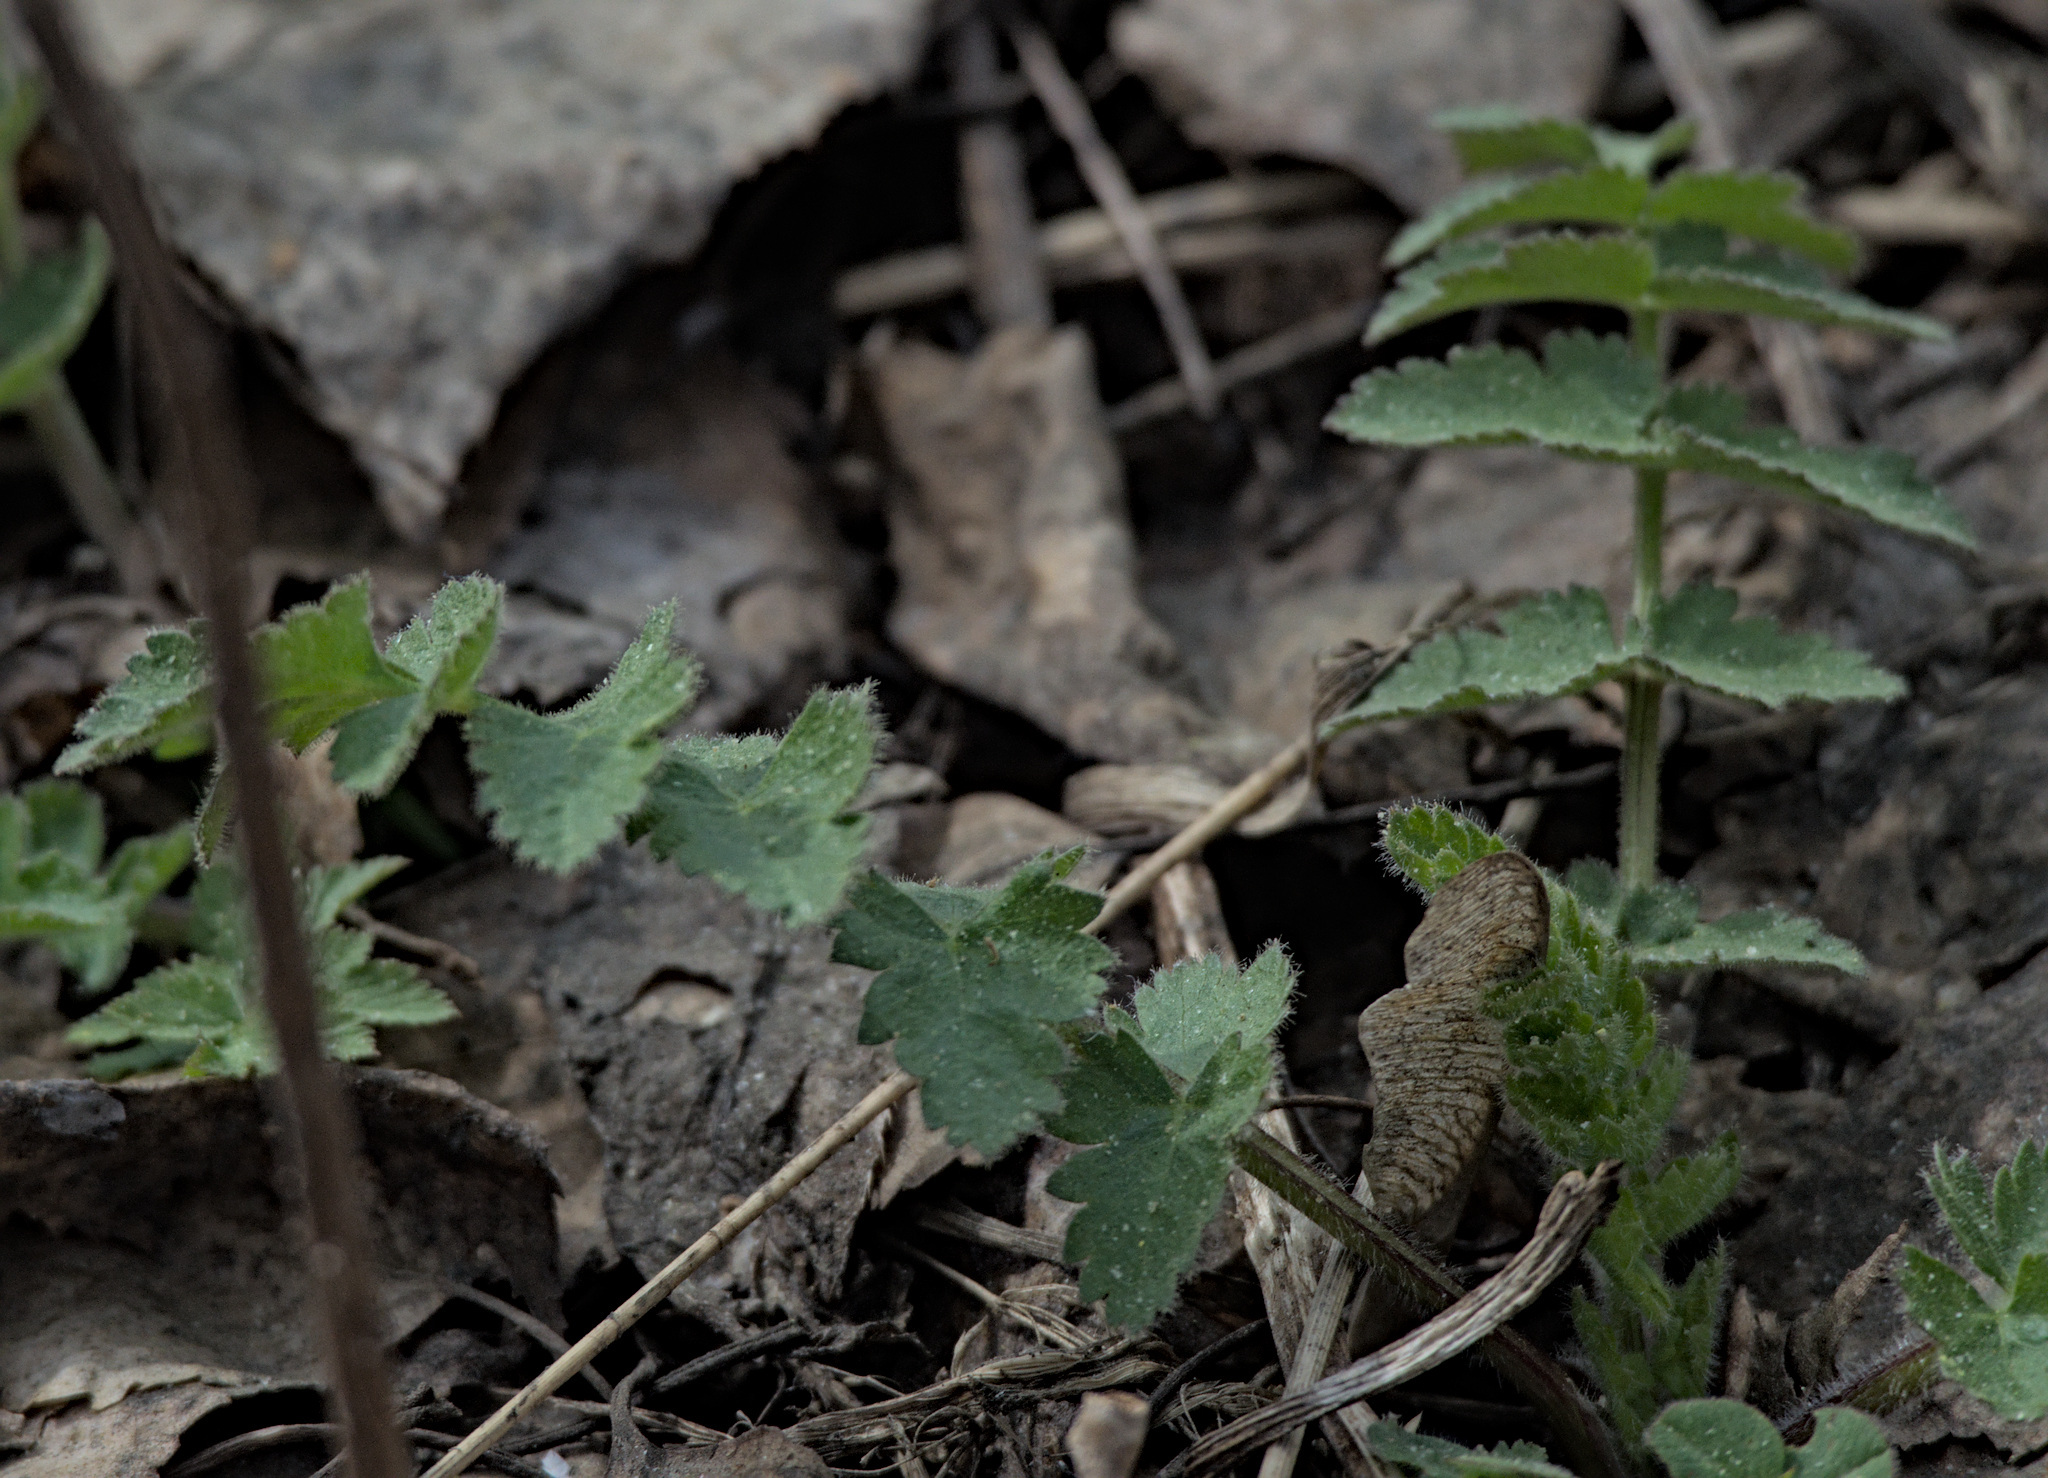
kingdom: Plantae
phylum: Tracheophyta
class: Magnoliopsida
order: Apiales
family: Apiaceae
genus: Pimpinella
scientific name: Pimpinella saxifraga
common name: Burnet-saxifrage
